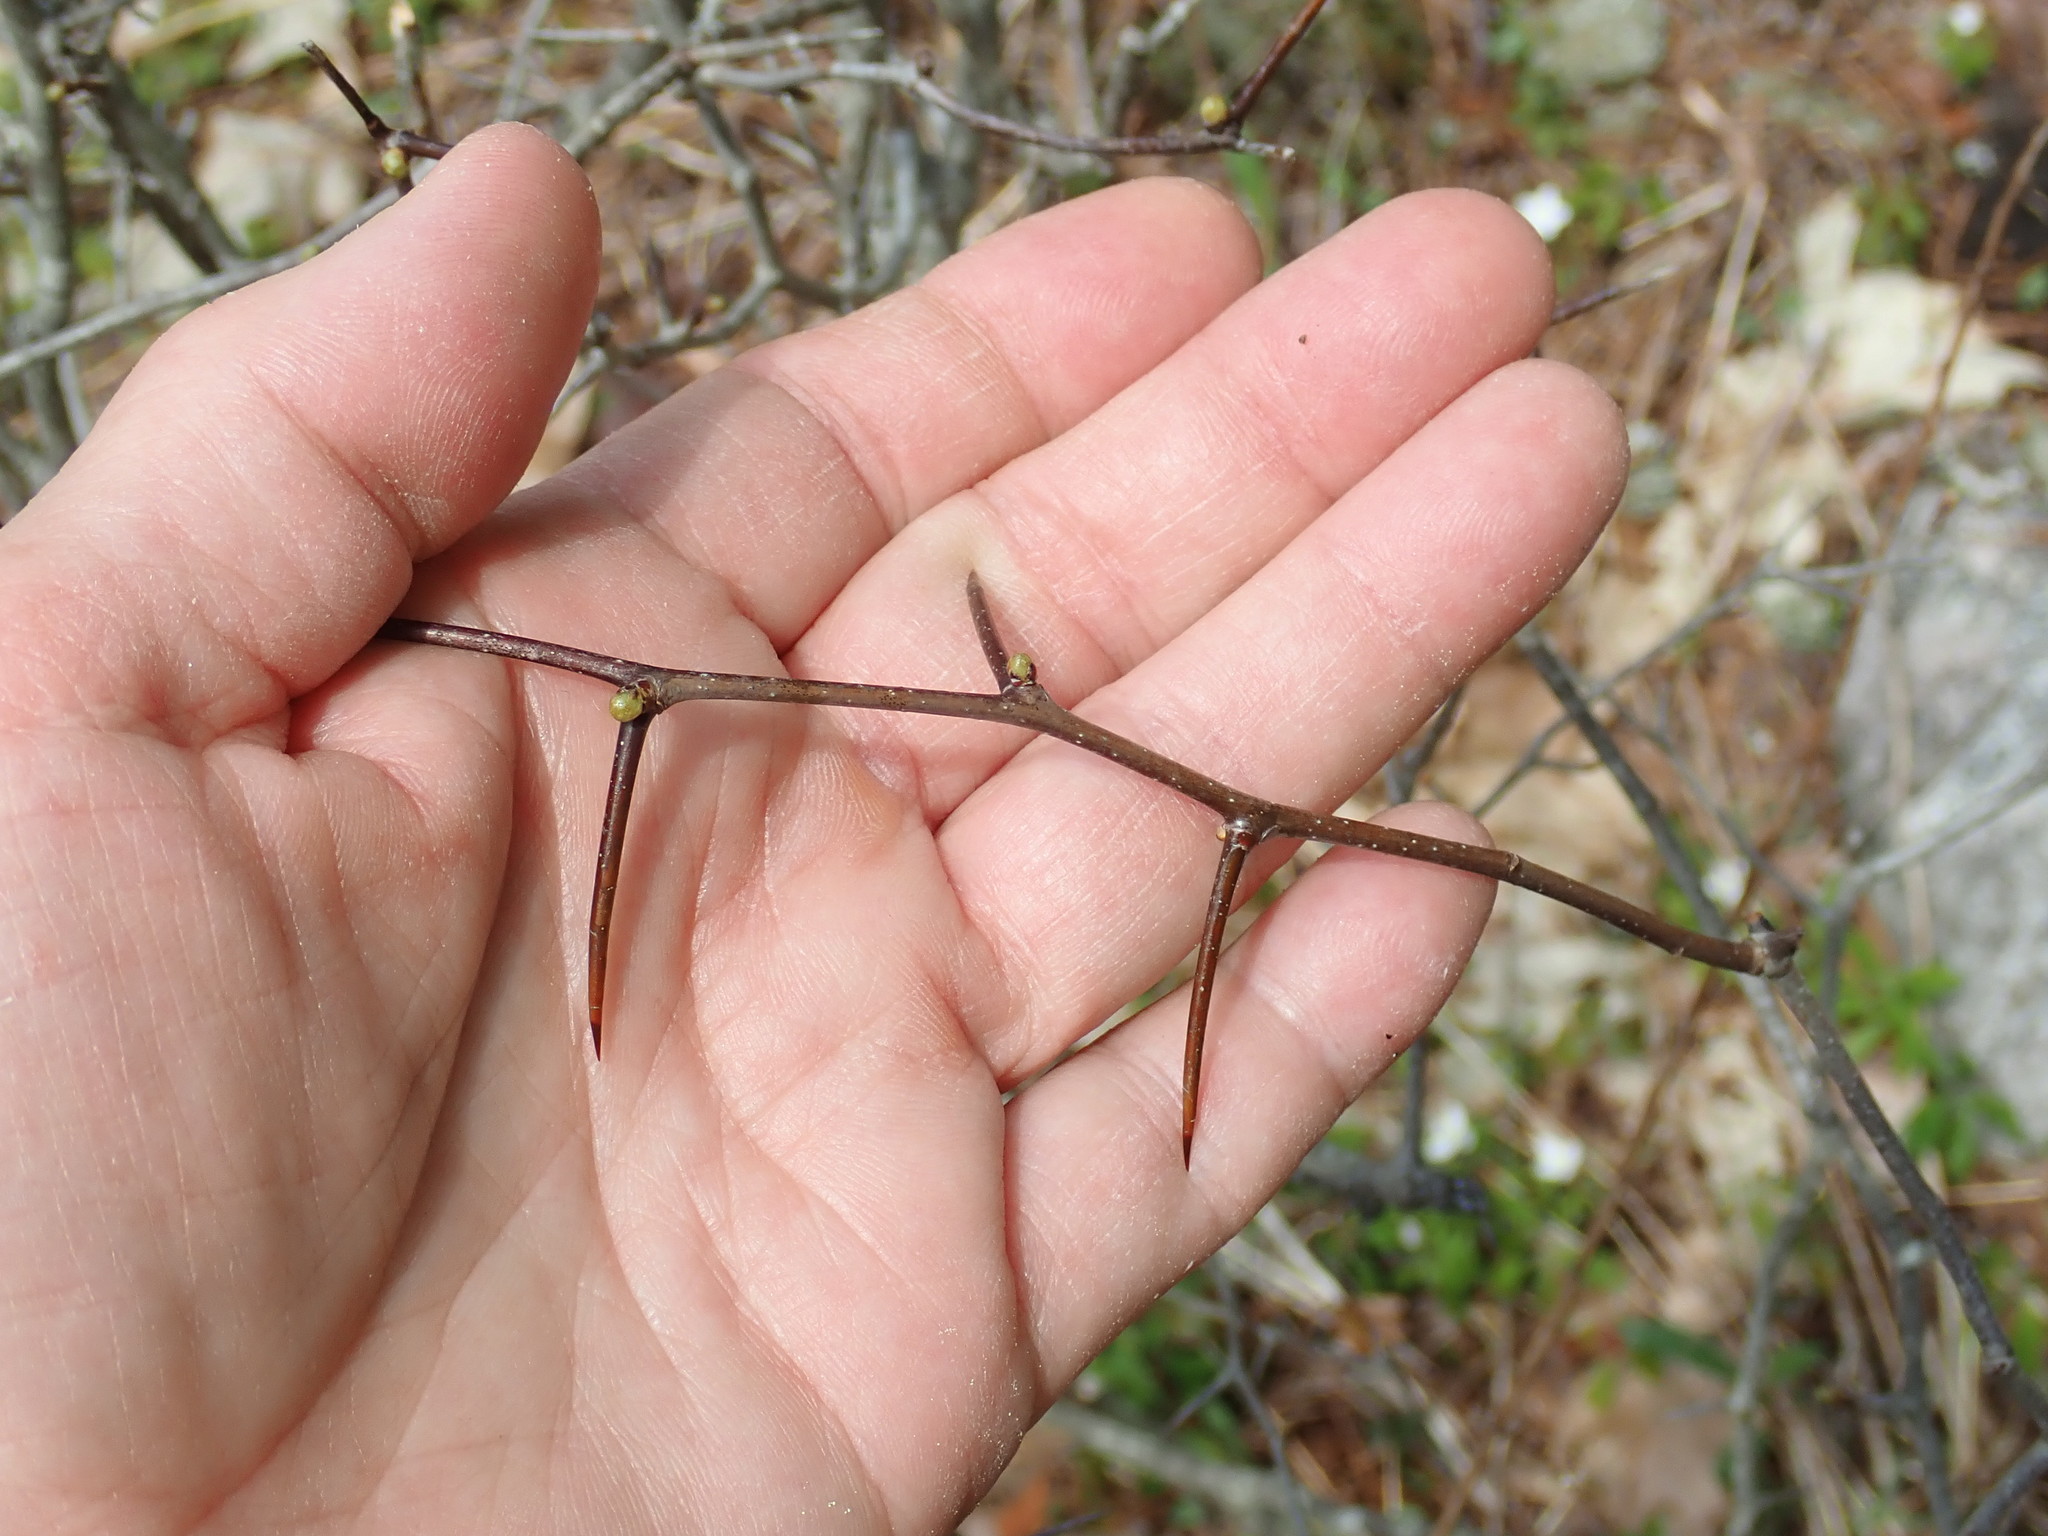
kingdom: Plantae
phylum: Tracheophyta
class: Magnoliopsida
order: Rosales
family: Rosaceae
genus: Crataegus
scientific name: Crataegus
